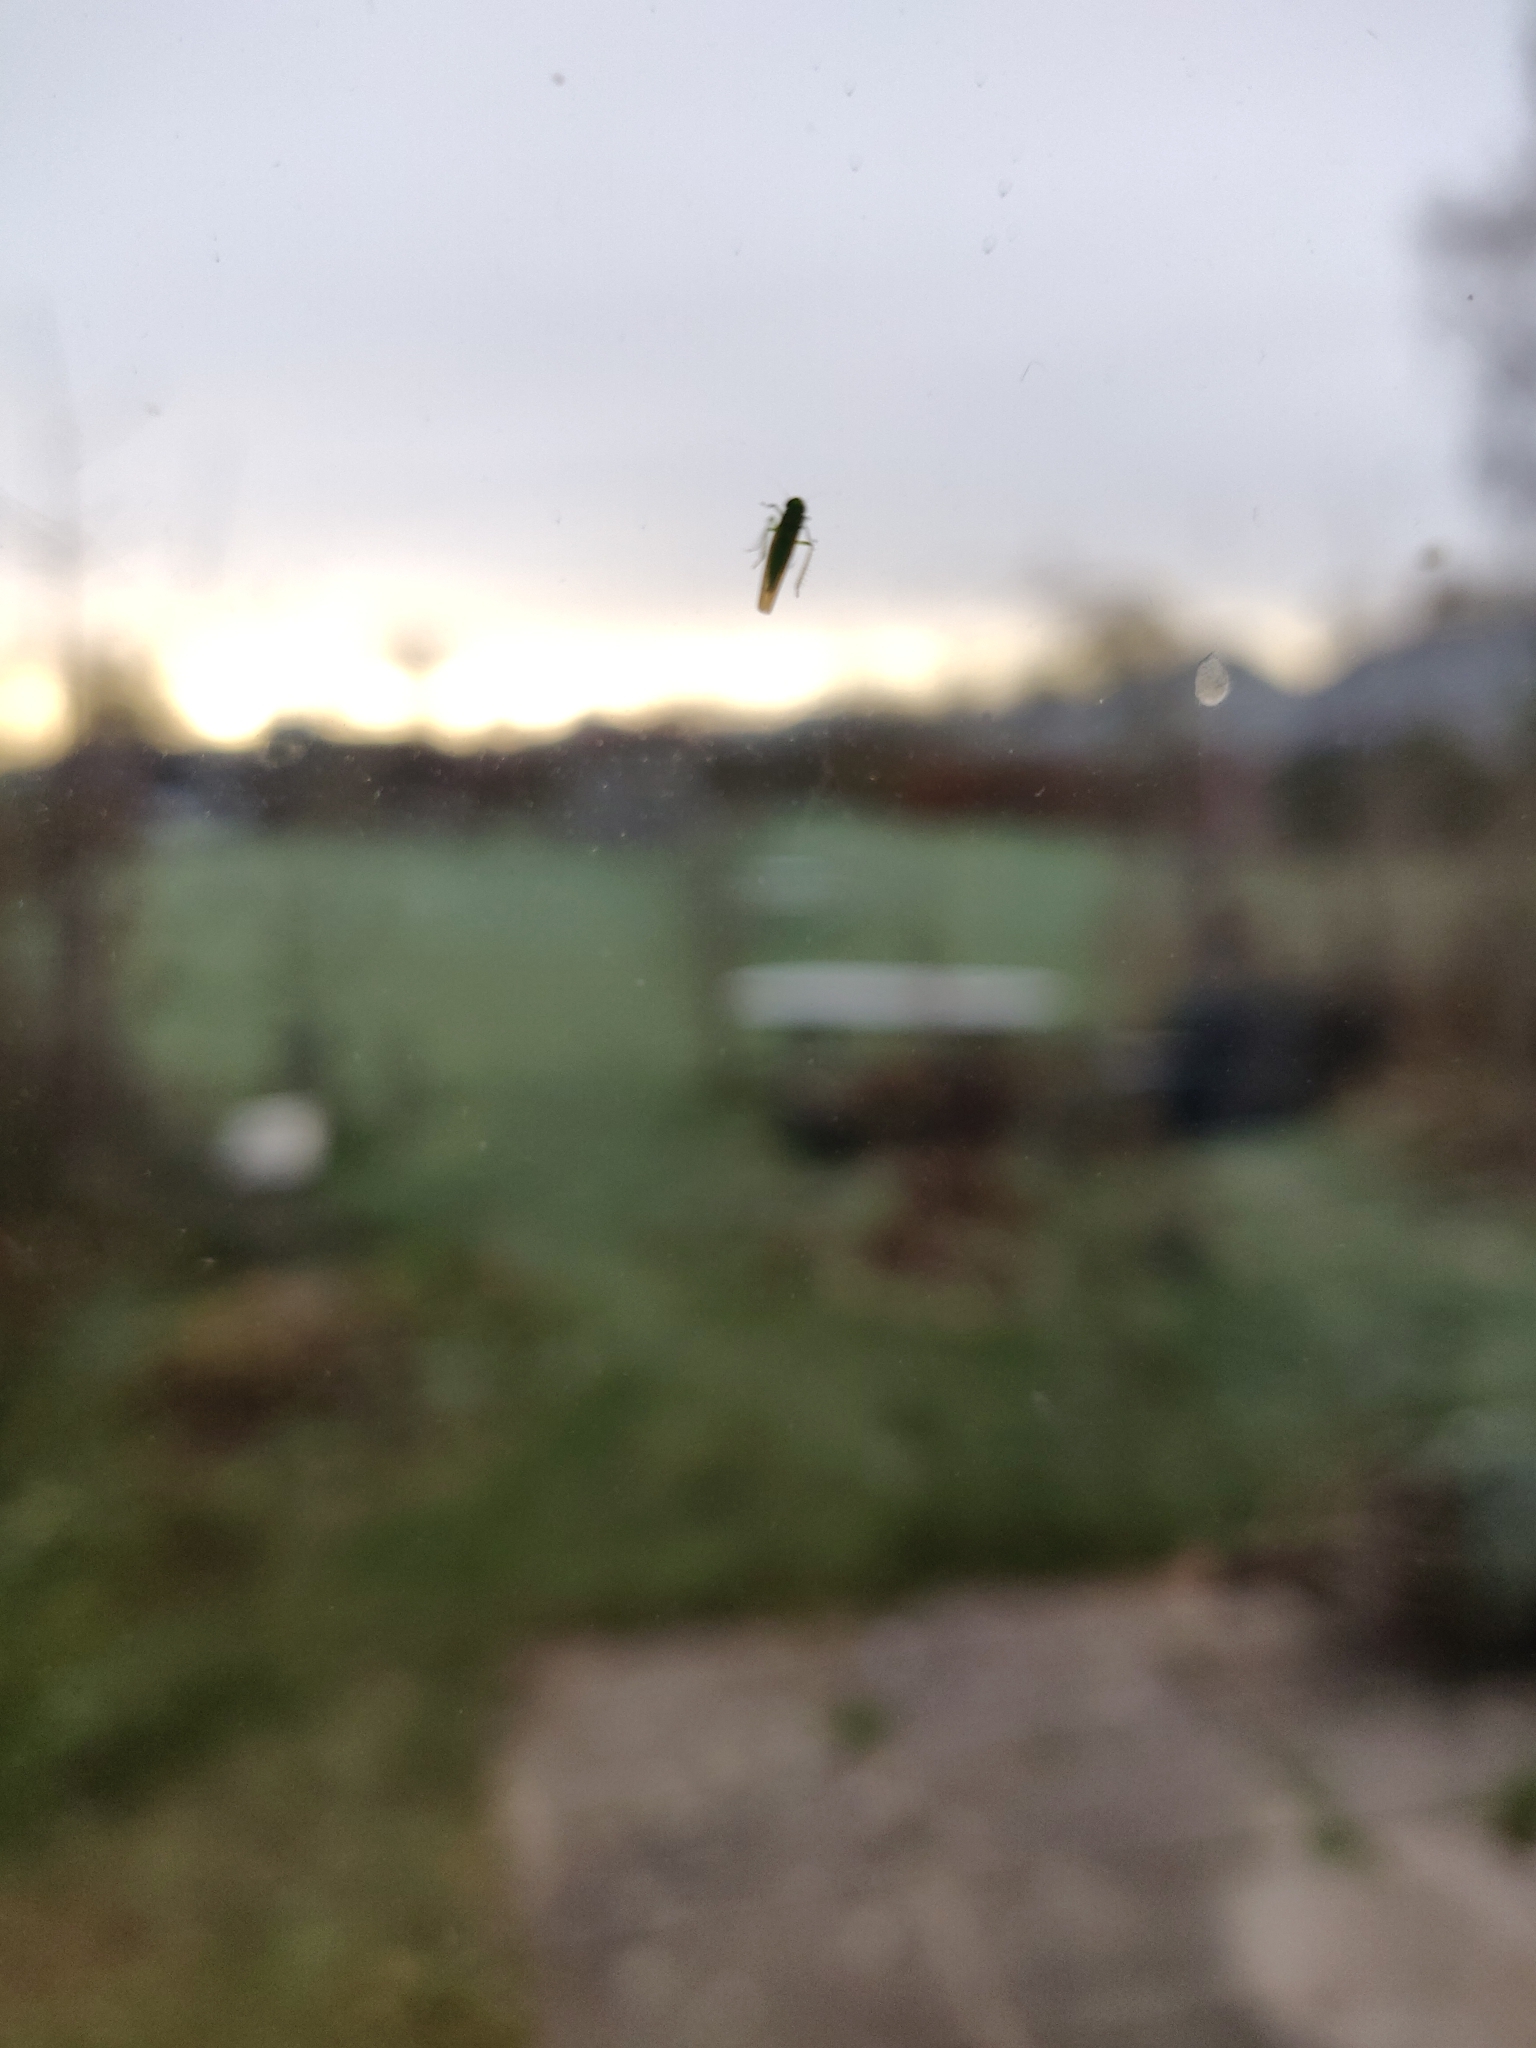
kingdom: Animalia
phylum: Arthropoda
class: Insecta
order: Hemiptera
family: Cicadellidae
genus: Hebata
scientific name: Hebata vitis
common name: The smaller green leafhopper
